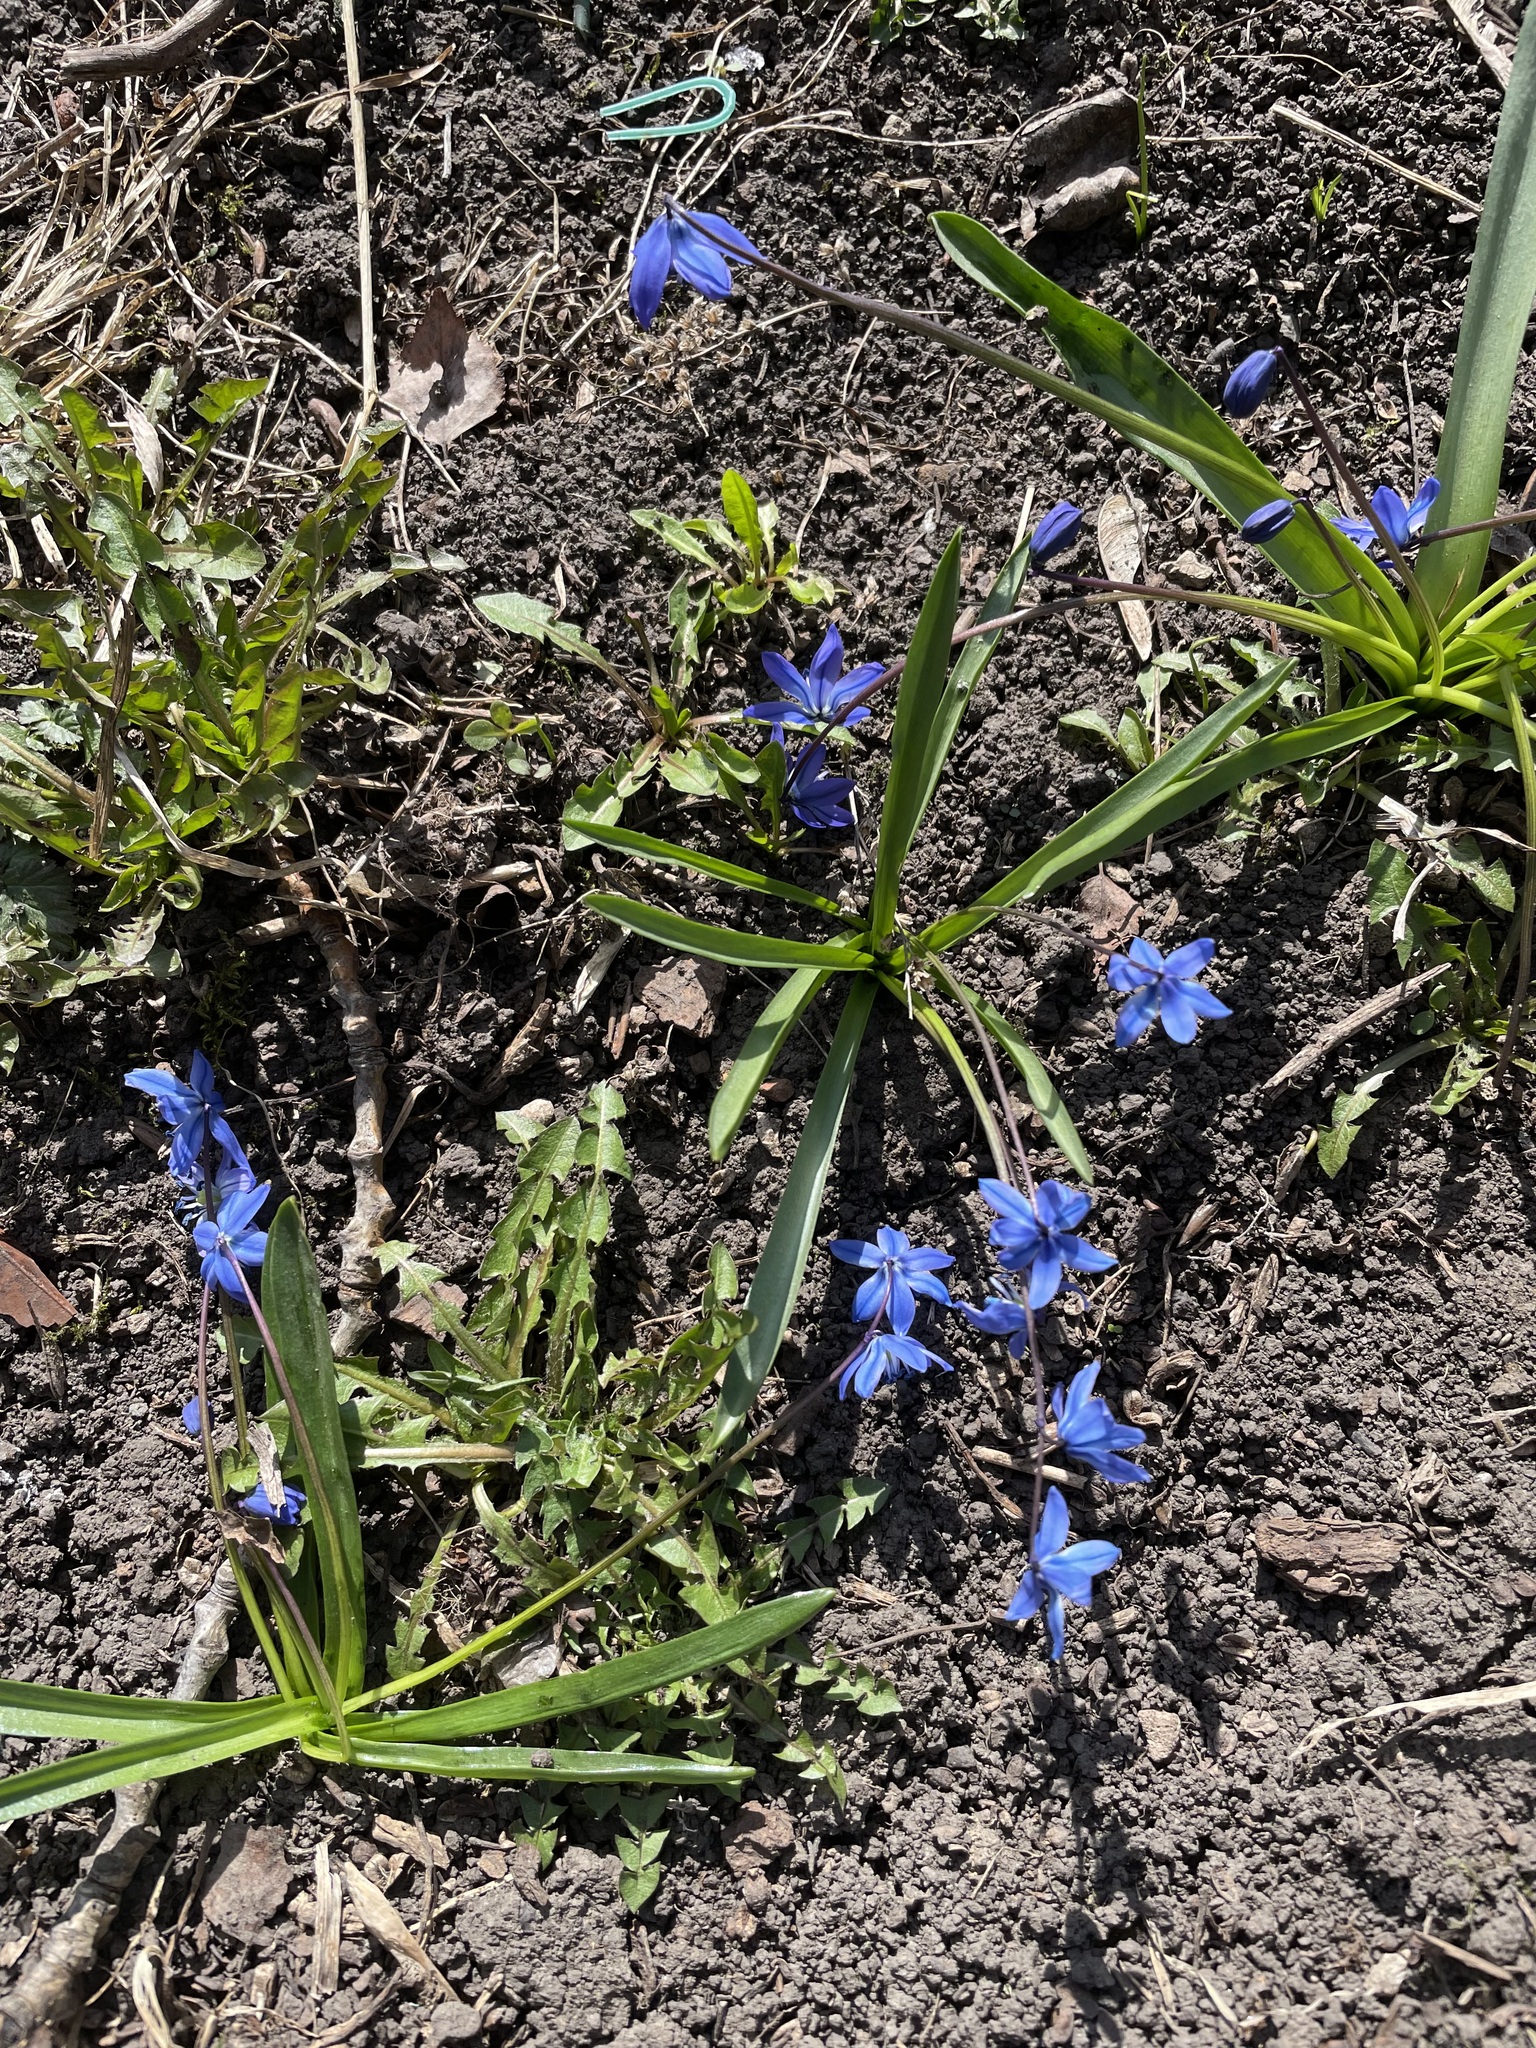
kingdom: Plantae
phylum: Tracheophyta
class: Liliopsida
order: Asparagales
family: Asparagaceae
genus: Scilla
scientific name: Scilla siberica
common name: Siberian squill
